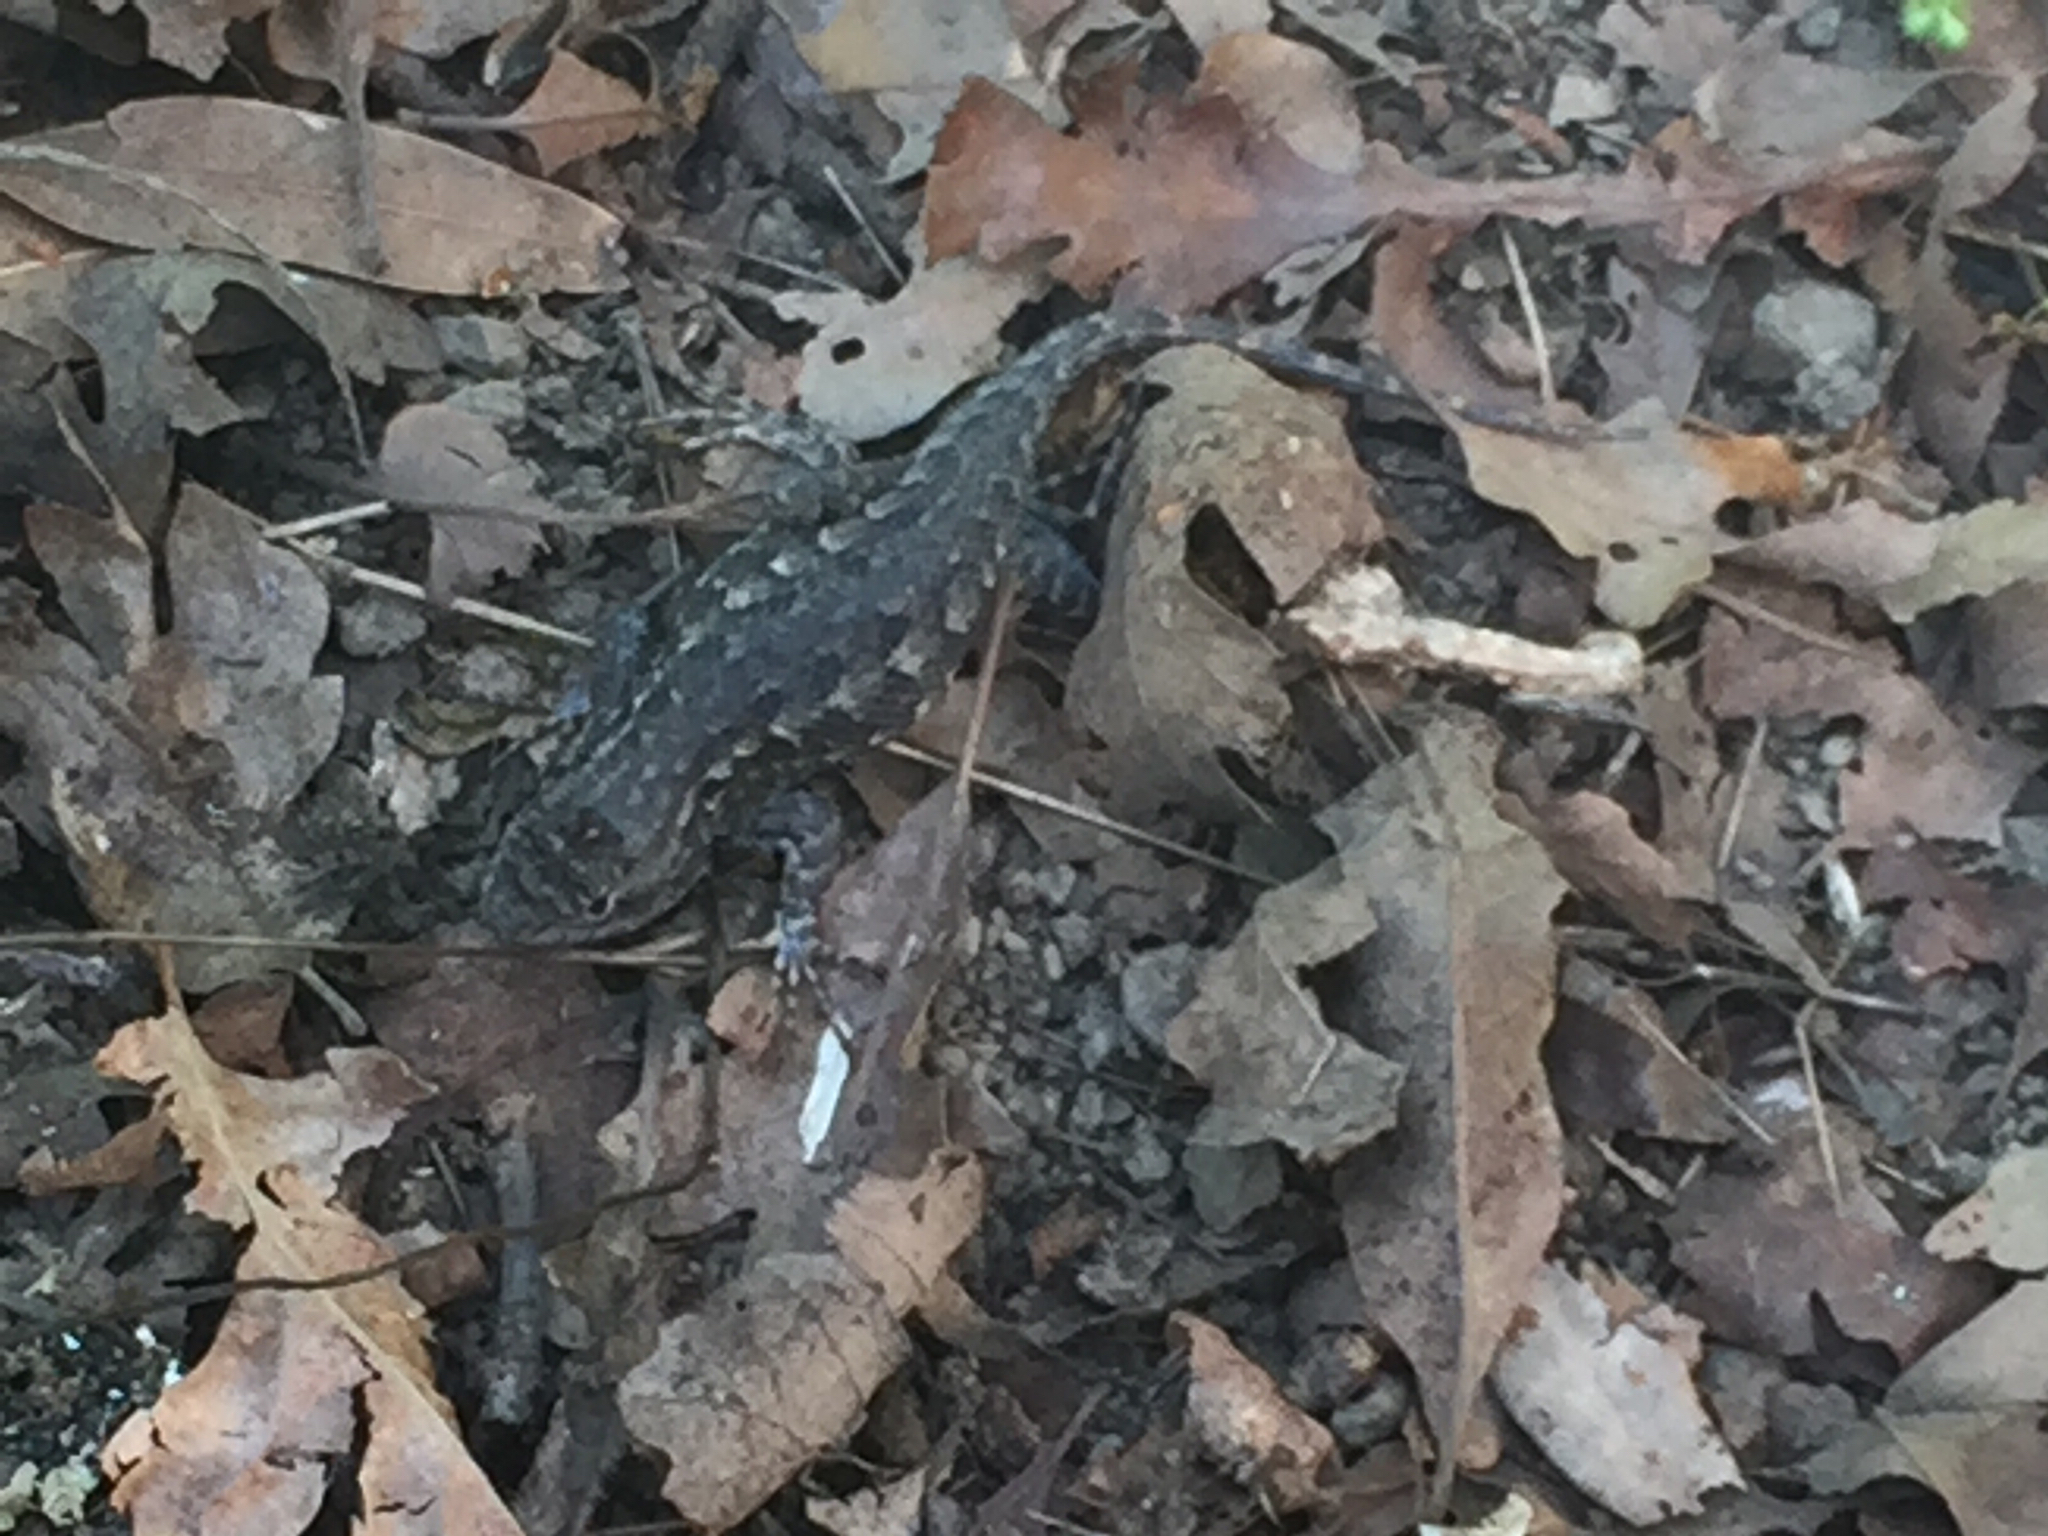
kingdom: Animalia
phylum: Chordata
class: Squamata
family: Phrynosomatidae
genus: Sceloporus
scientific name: Sceloporus occidentalis
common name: Western fence lizard
